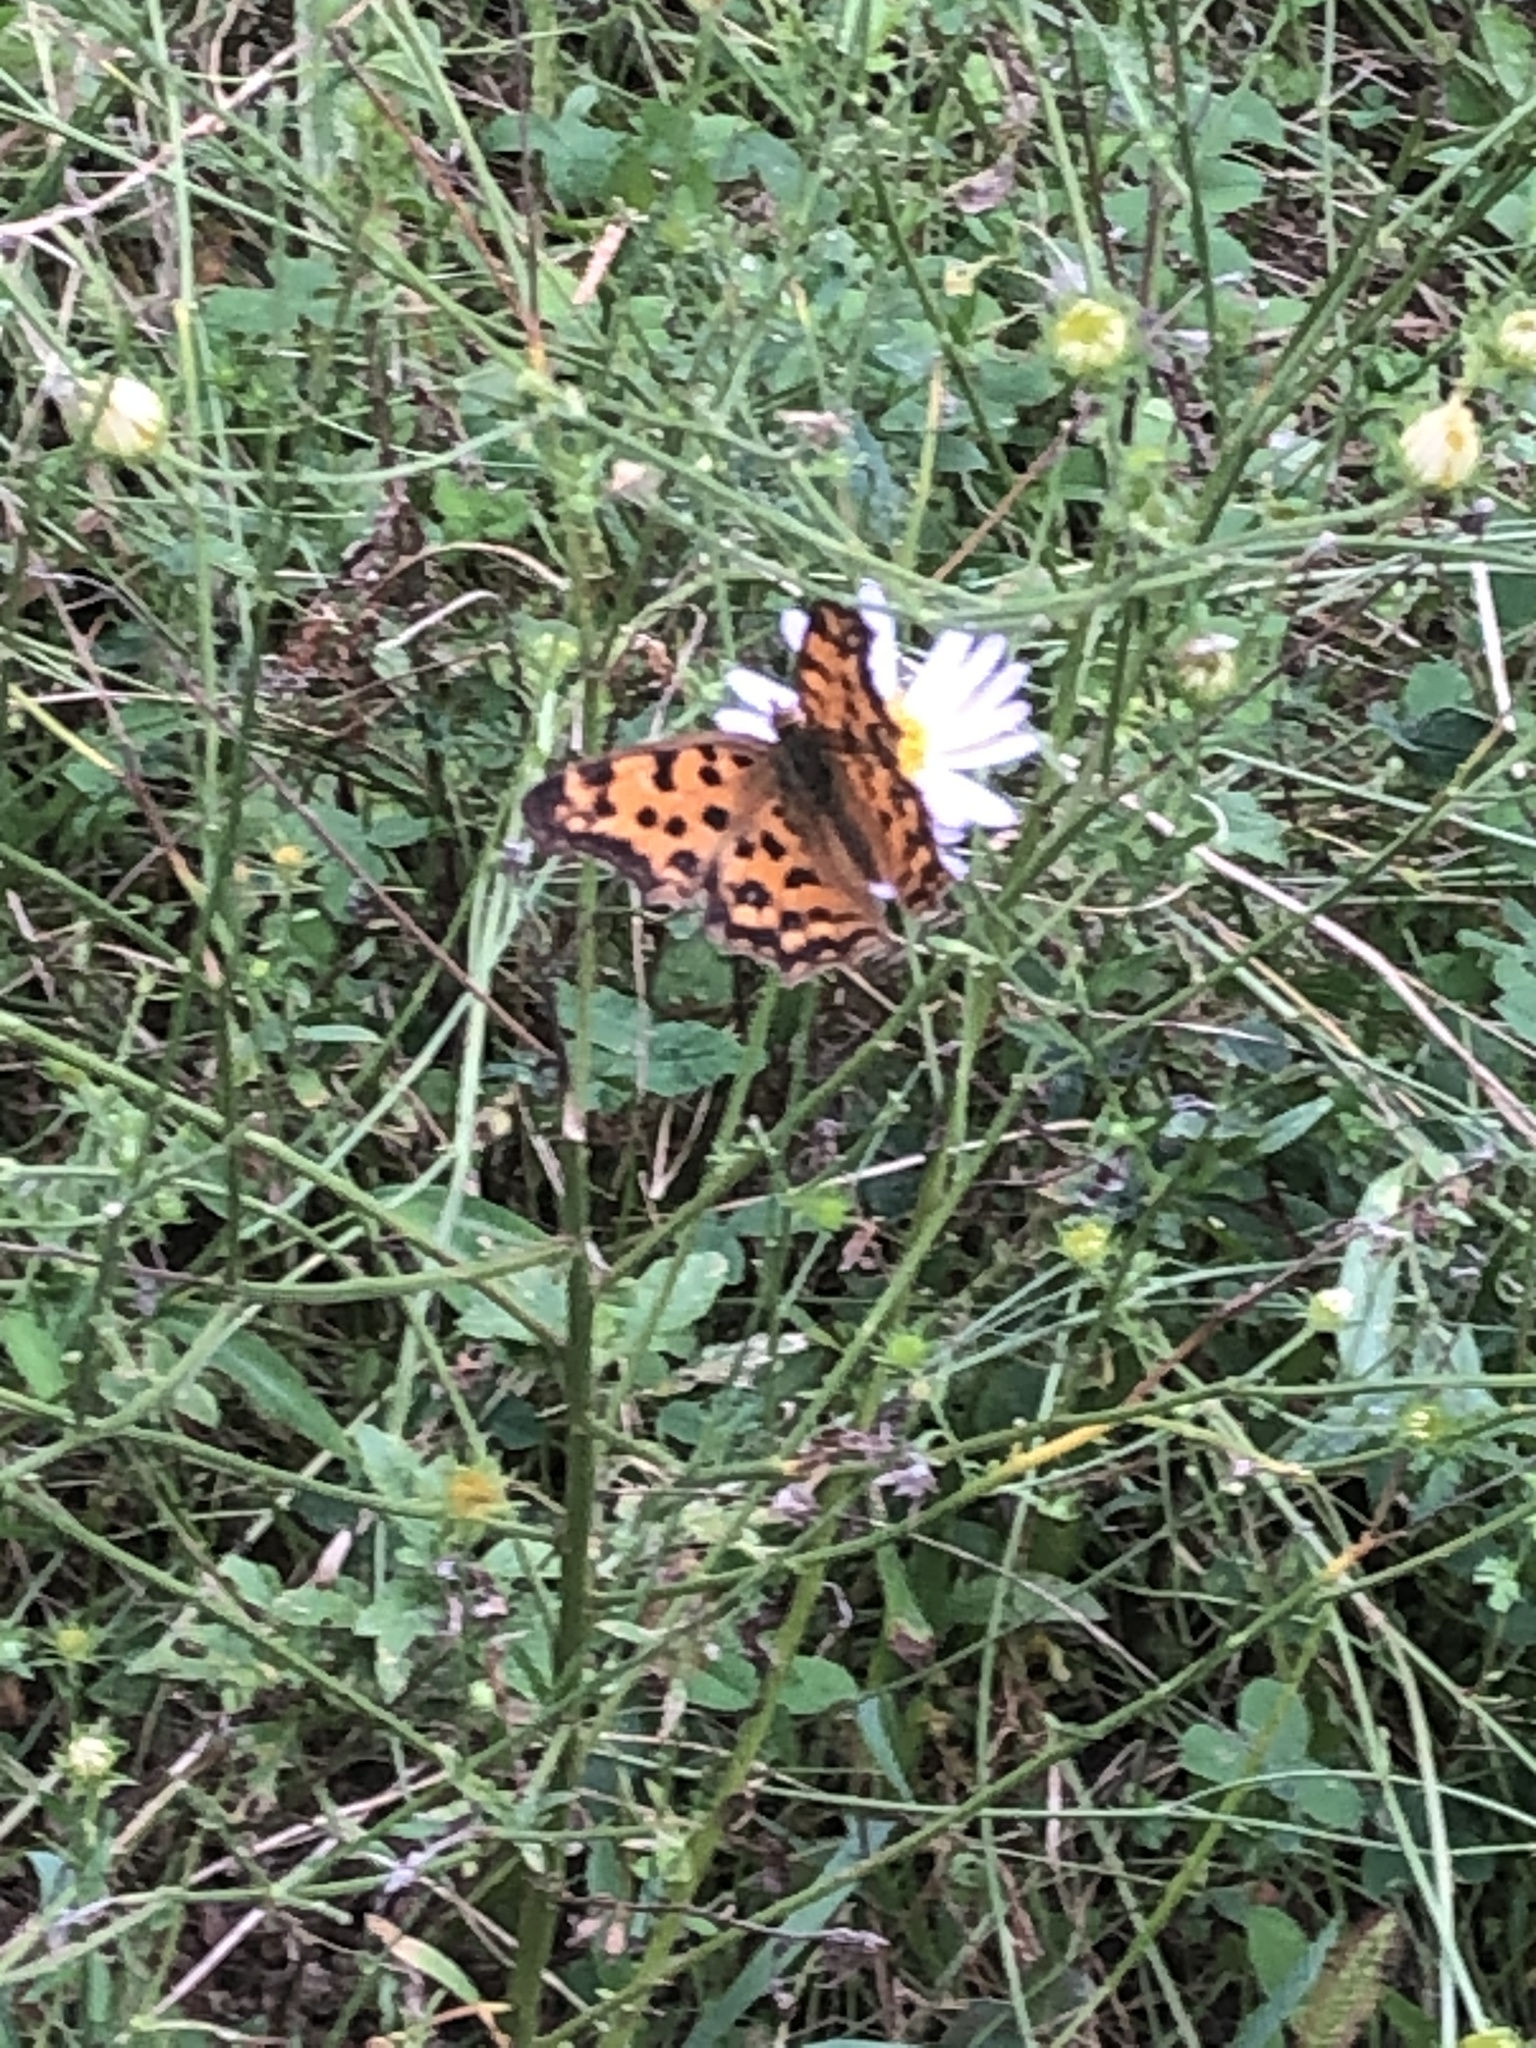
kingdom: Animalia
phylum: Arthropoda
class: Insecta
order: Lepidoptera
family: Nymphalidae
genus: Polygonia
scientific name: Polygonia c-aureum
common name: Asian comma
